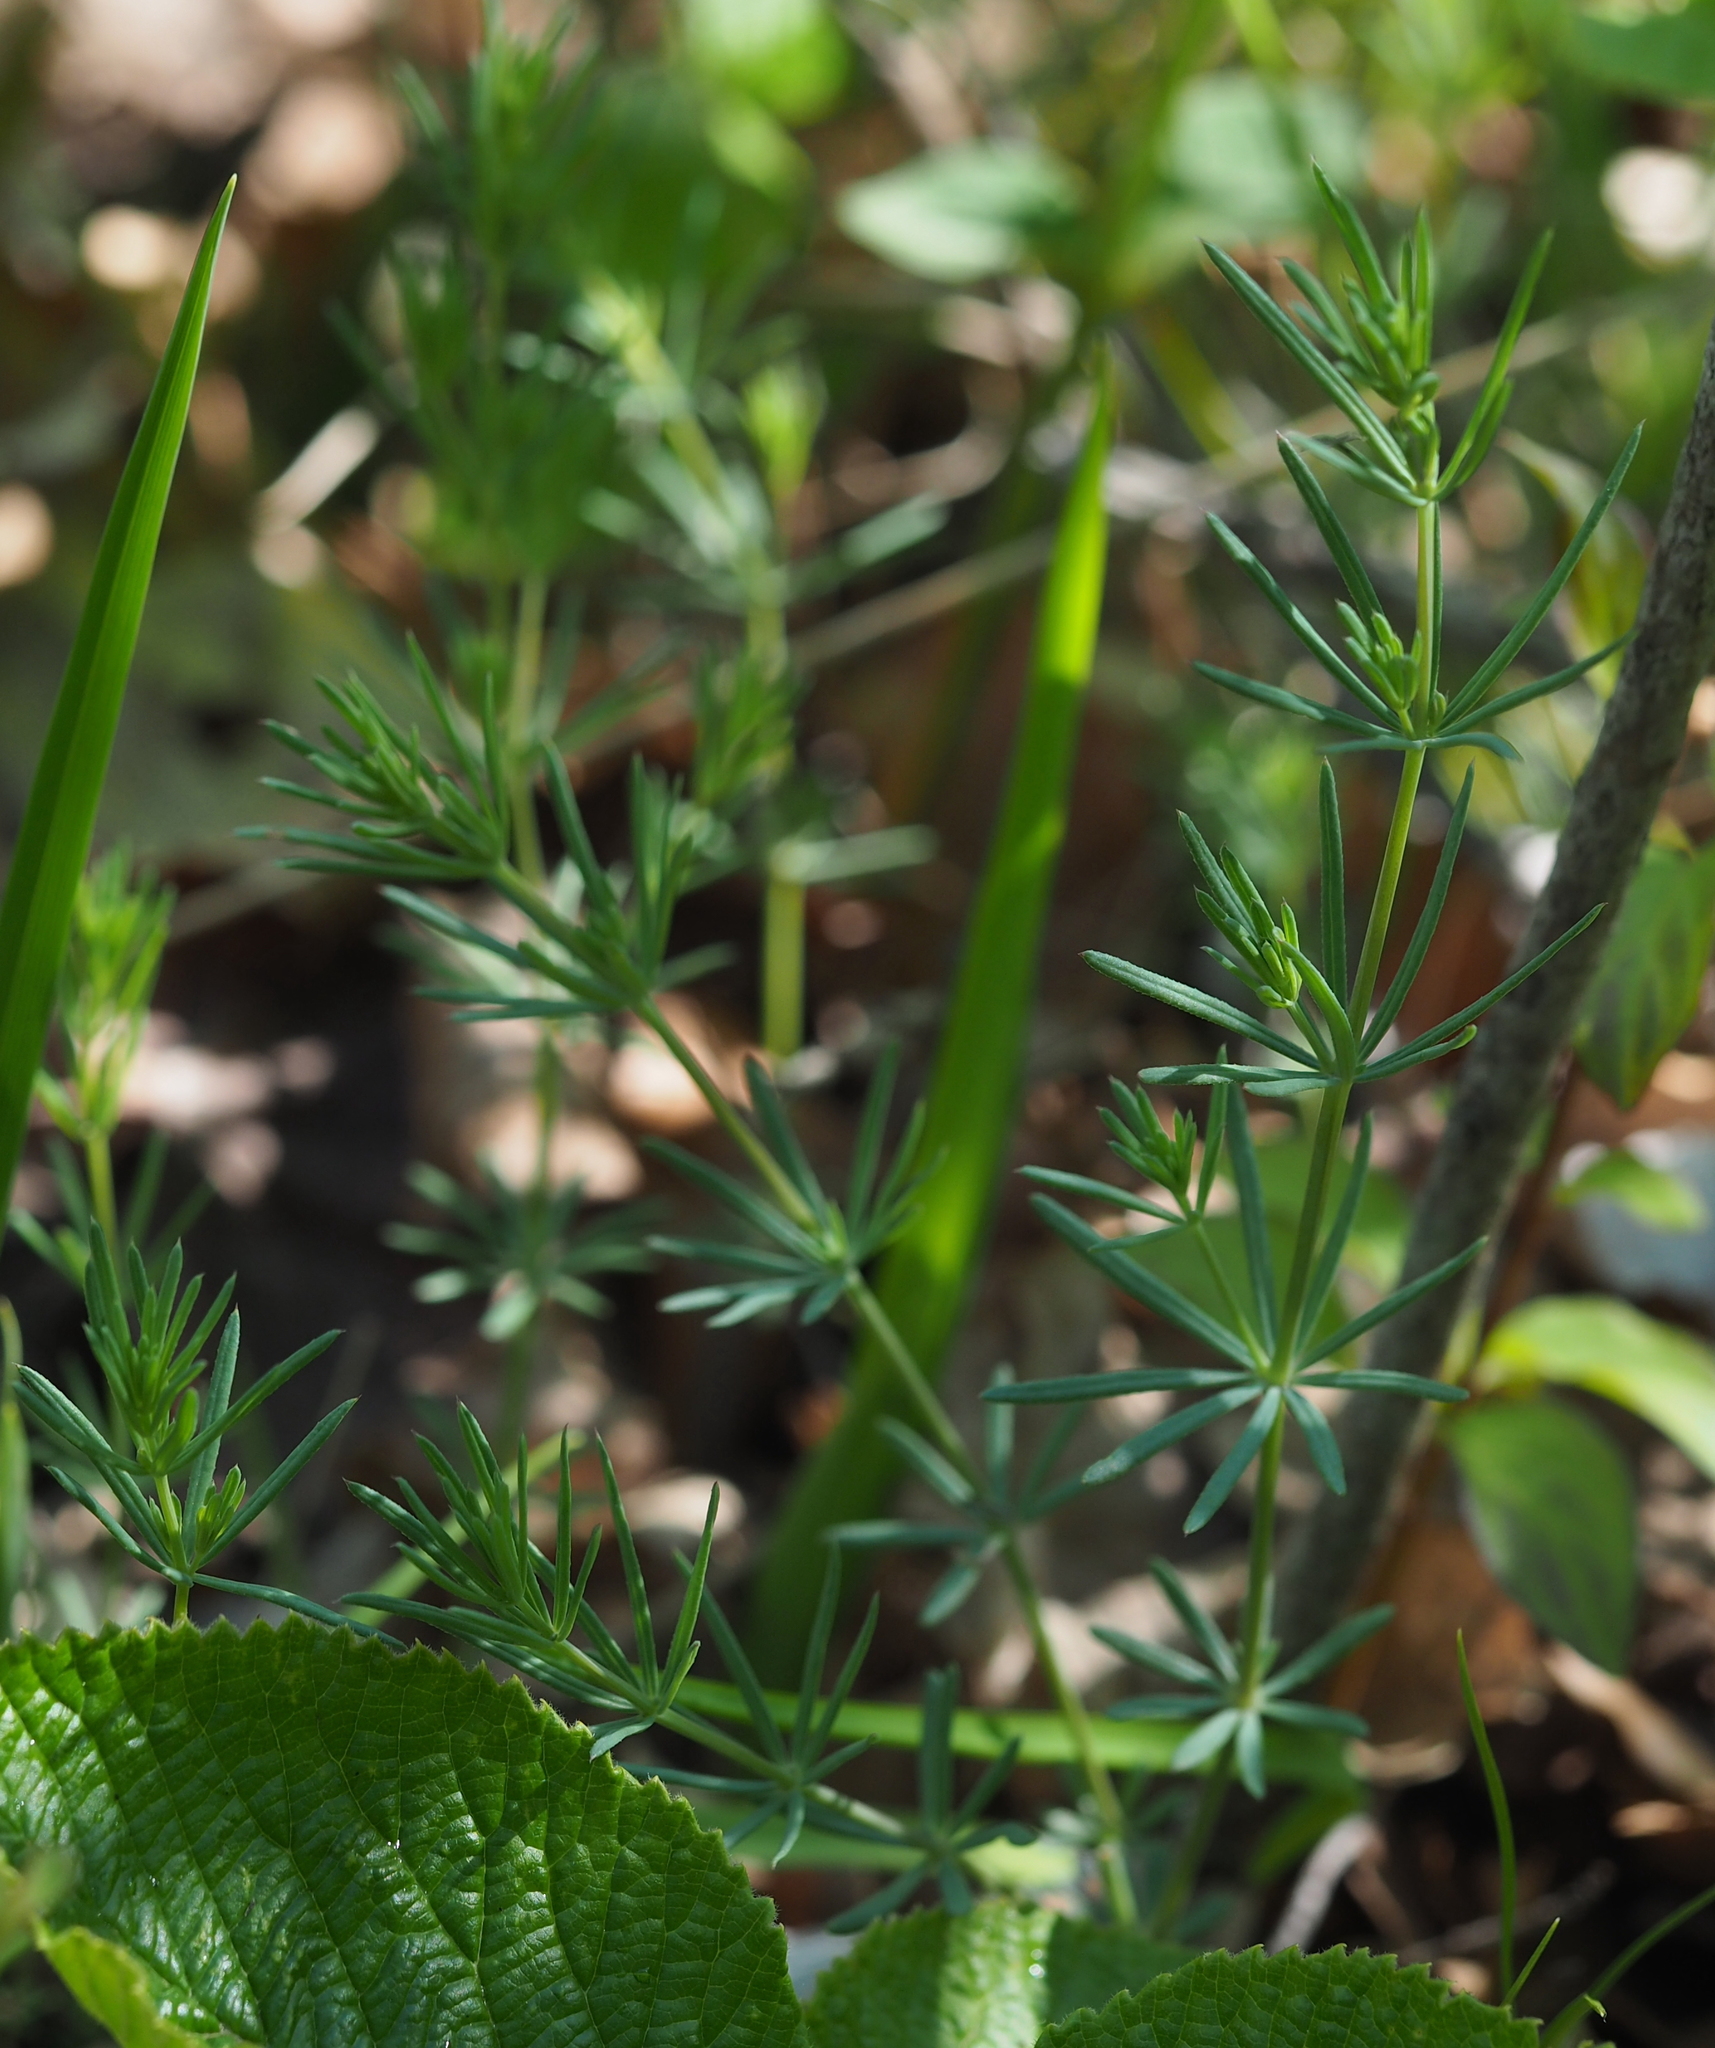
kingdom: Plantae
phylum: Tracheophyta
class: Magnoliopsida
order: Gentianales
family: Rubiaceae
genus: Galium
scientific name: Galium glaucum
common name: Waxy bedstraw
